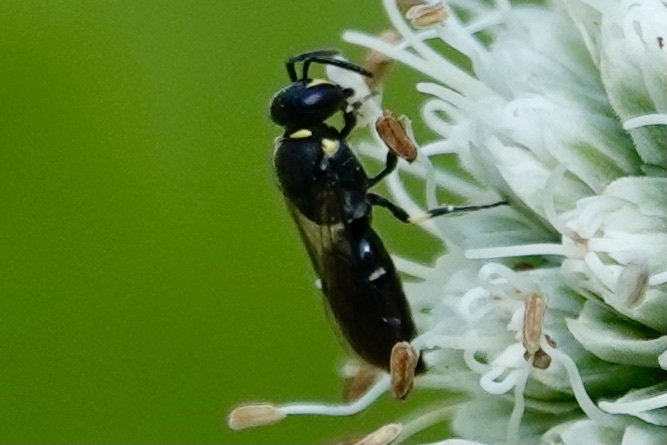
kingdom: Animalia
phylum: Arthropoda
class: Insecta
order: Hymenoptera
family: Colletidae
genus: Hylaeus
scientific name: Hylaeus modestus
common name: Yellow-faced bee
